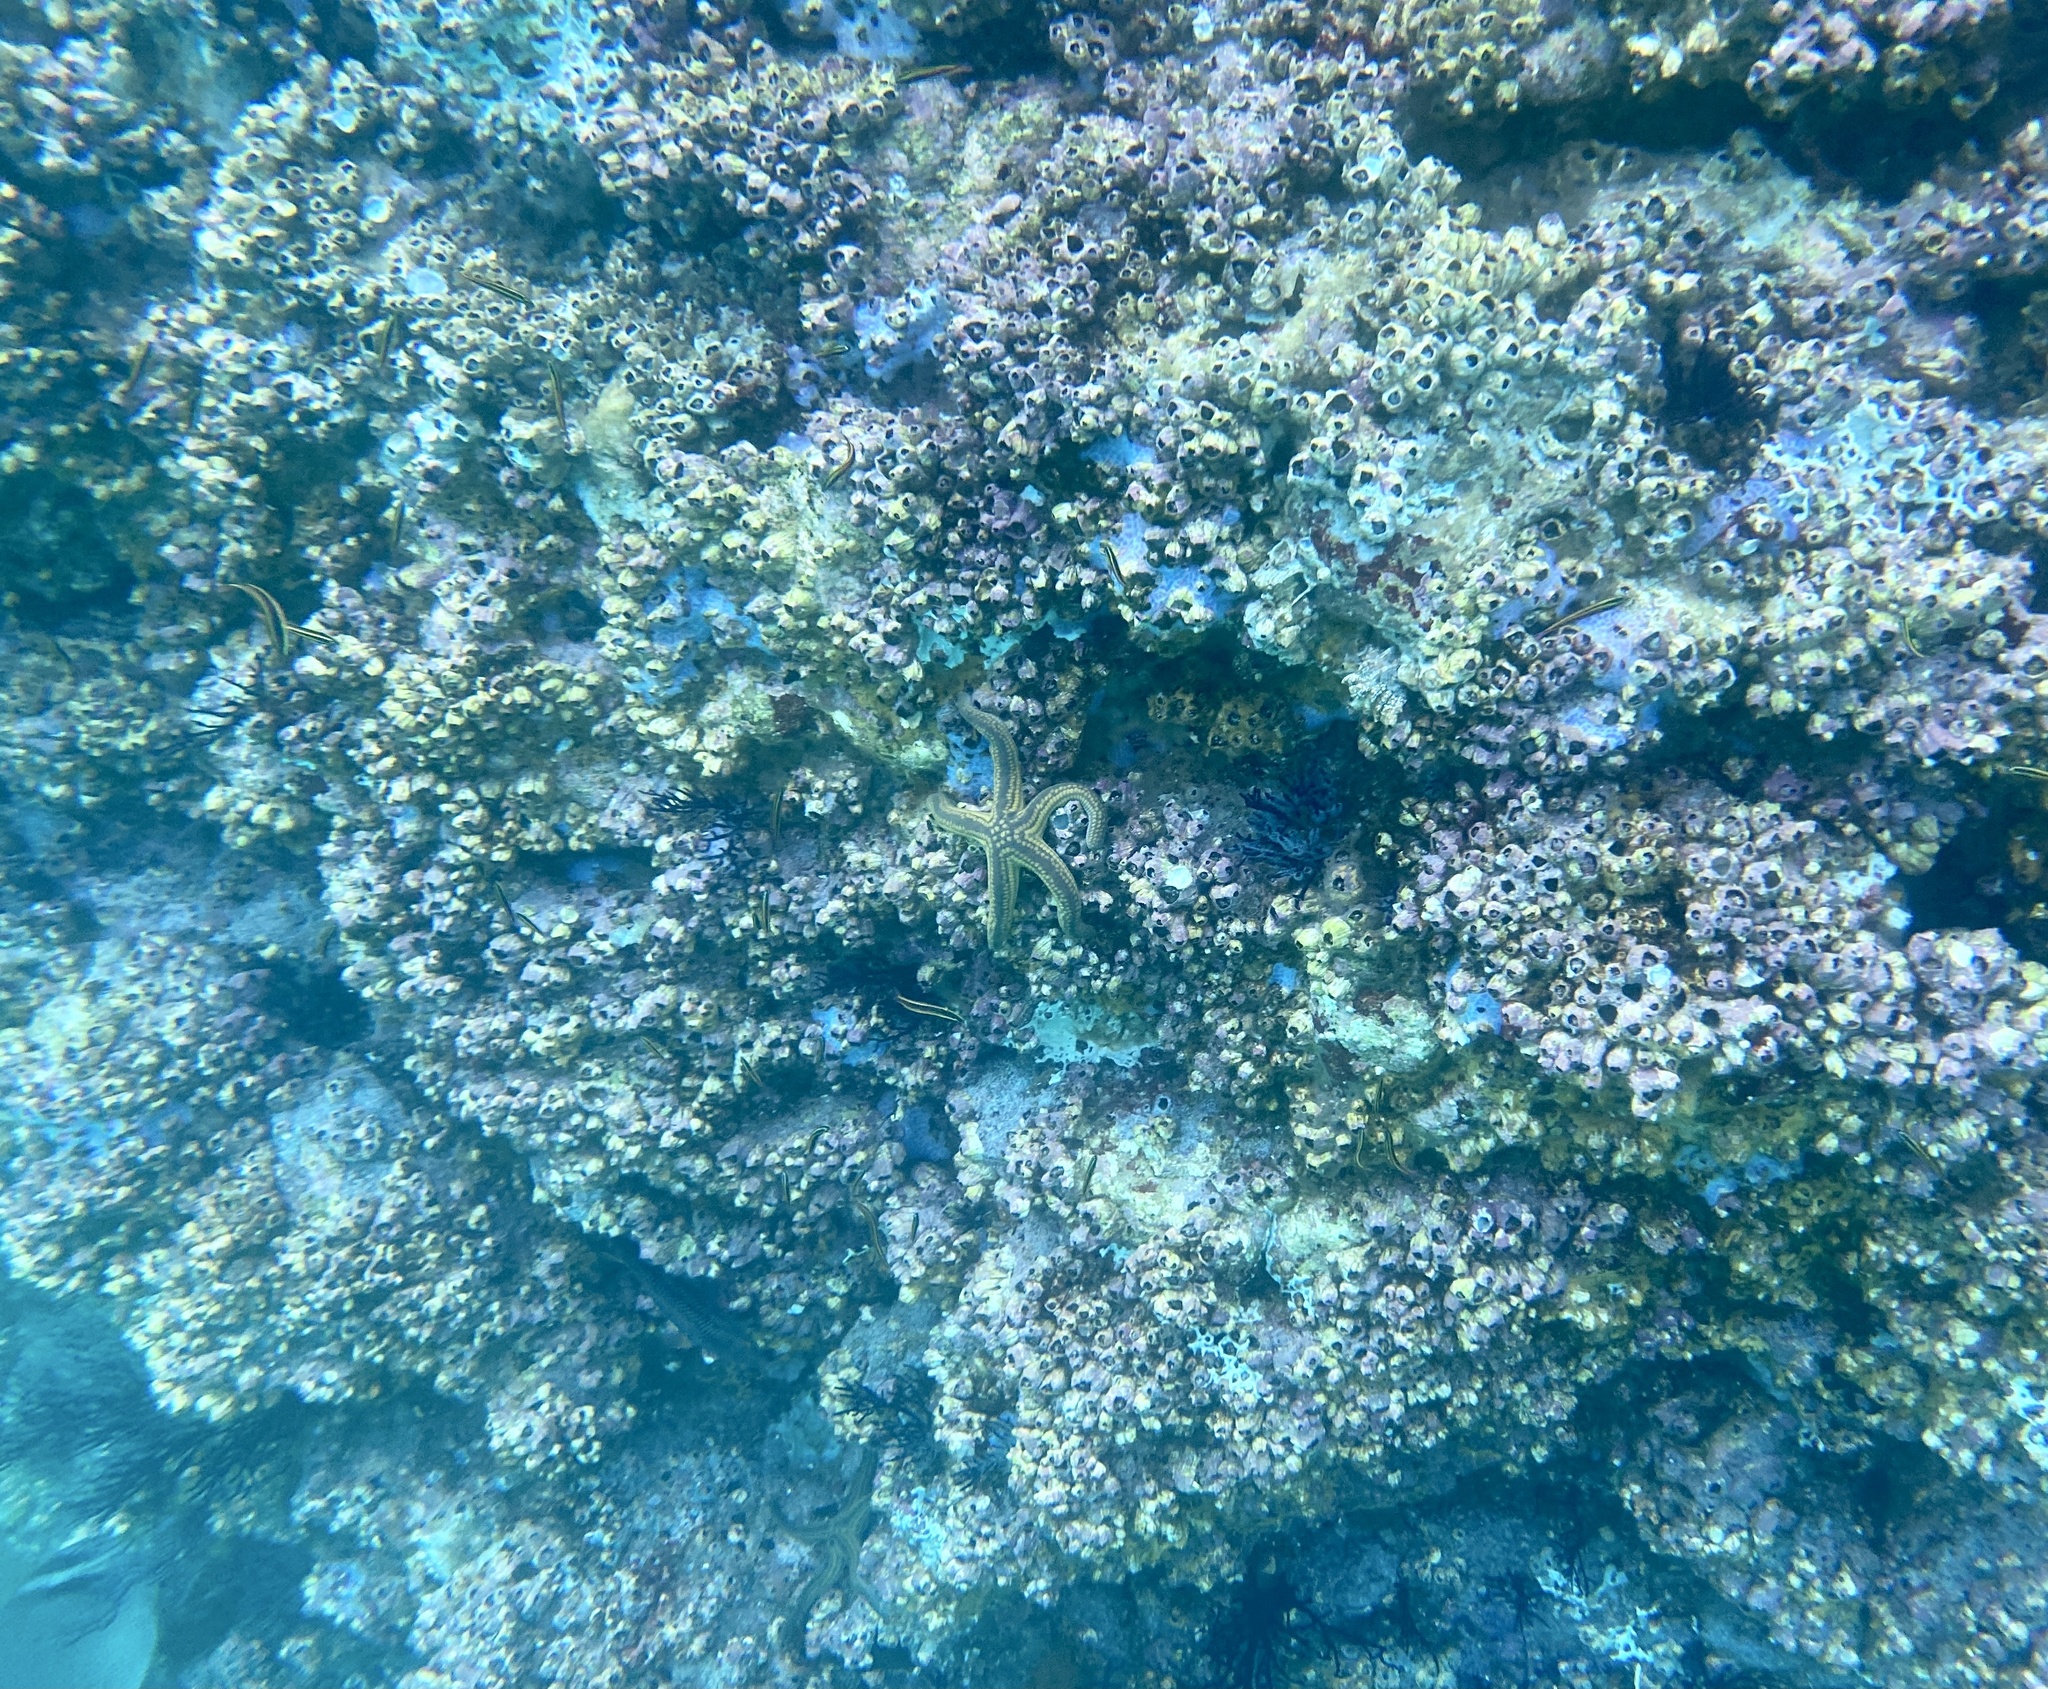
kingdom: Animalia
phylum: Echinodermata
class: Asteroidea
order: Valvatida
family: Ophidiasteridae
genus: Pharia
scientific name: Pharia pyramidata
